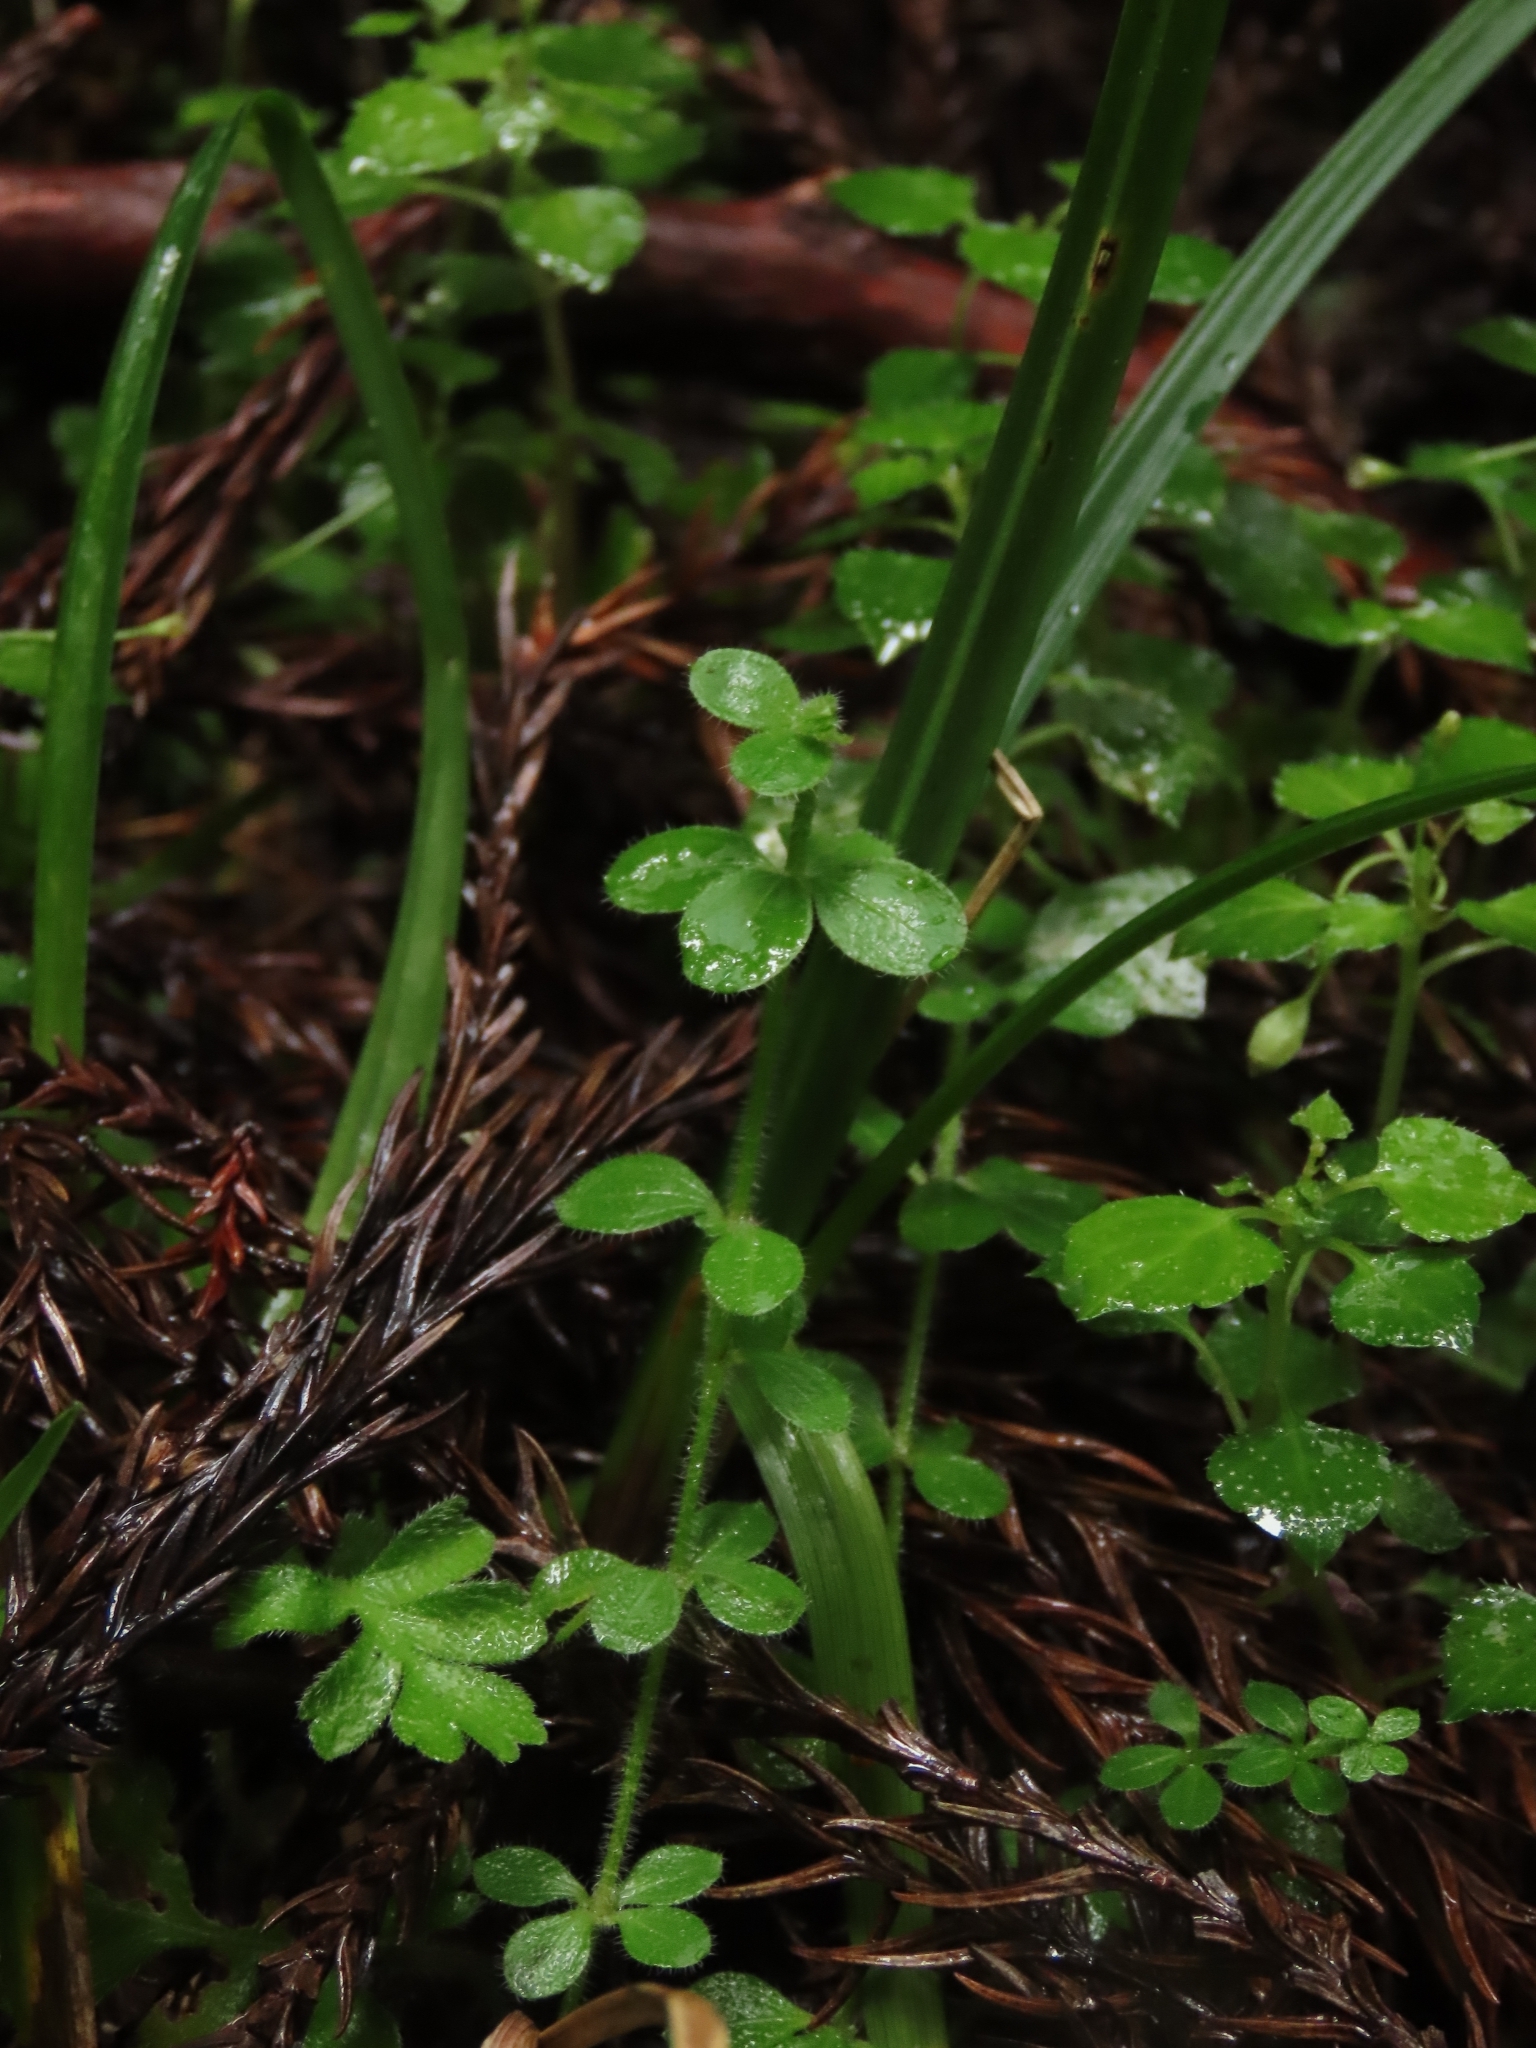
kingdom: Plantae
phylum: Tracheophyta
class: Magnoliopsida
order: Gentianales
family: Rubiaceae
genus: Galium
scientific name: Galium formosense
